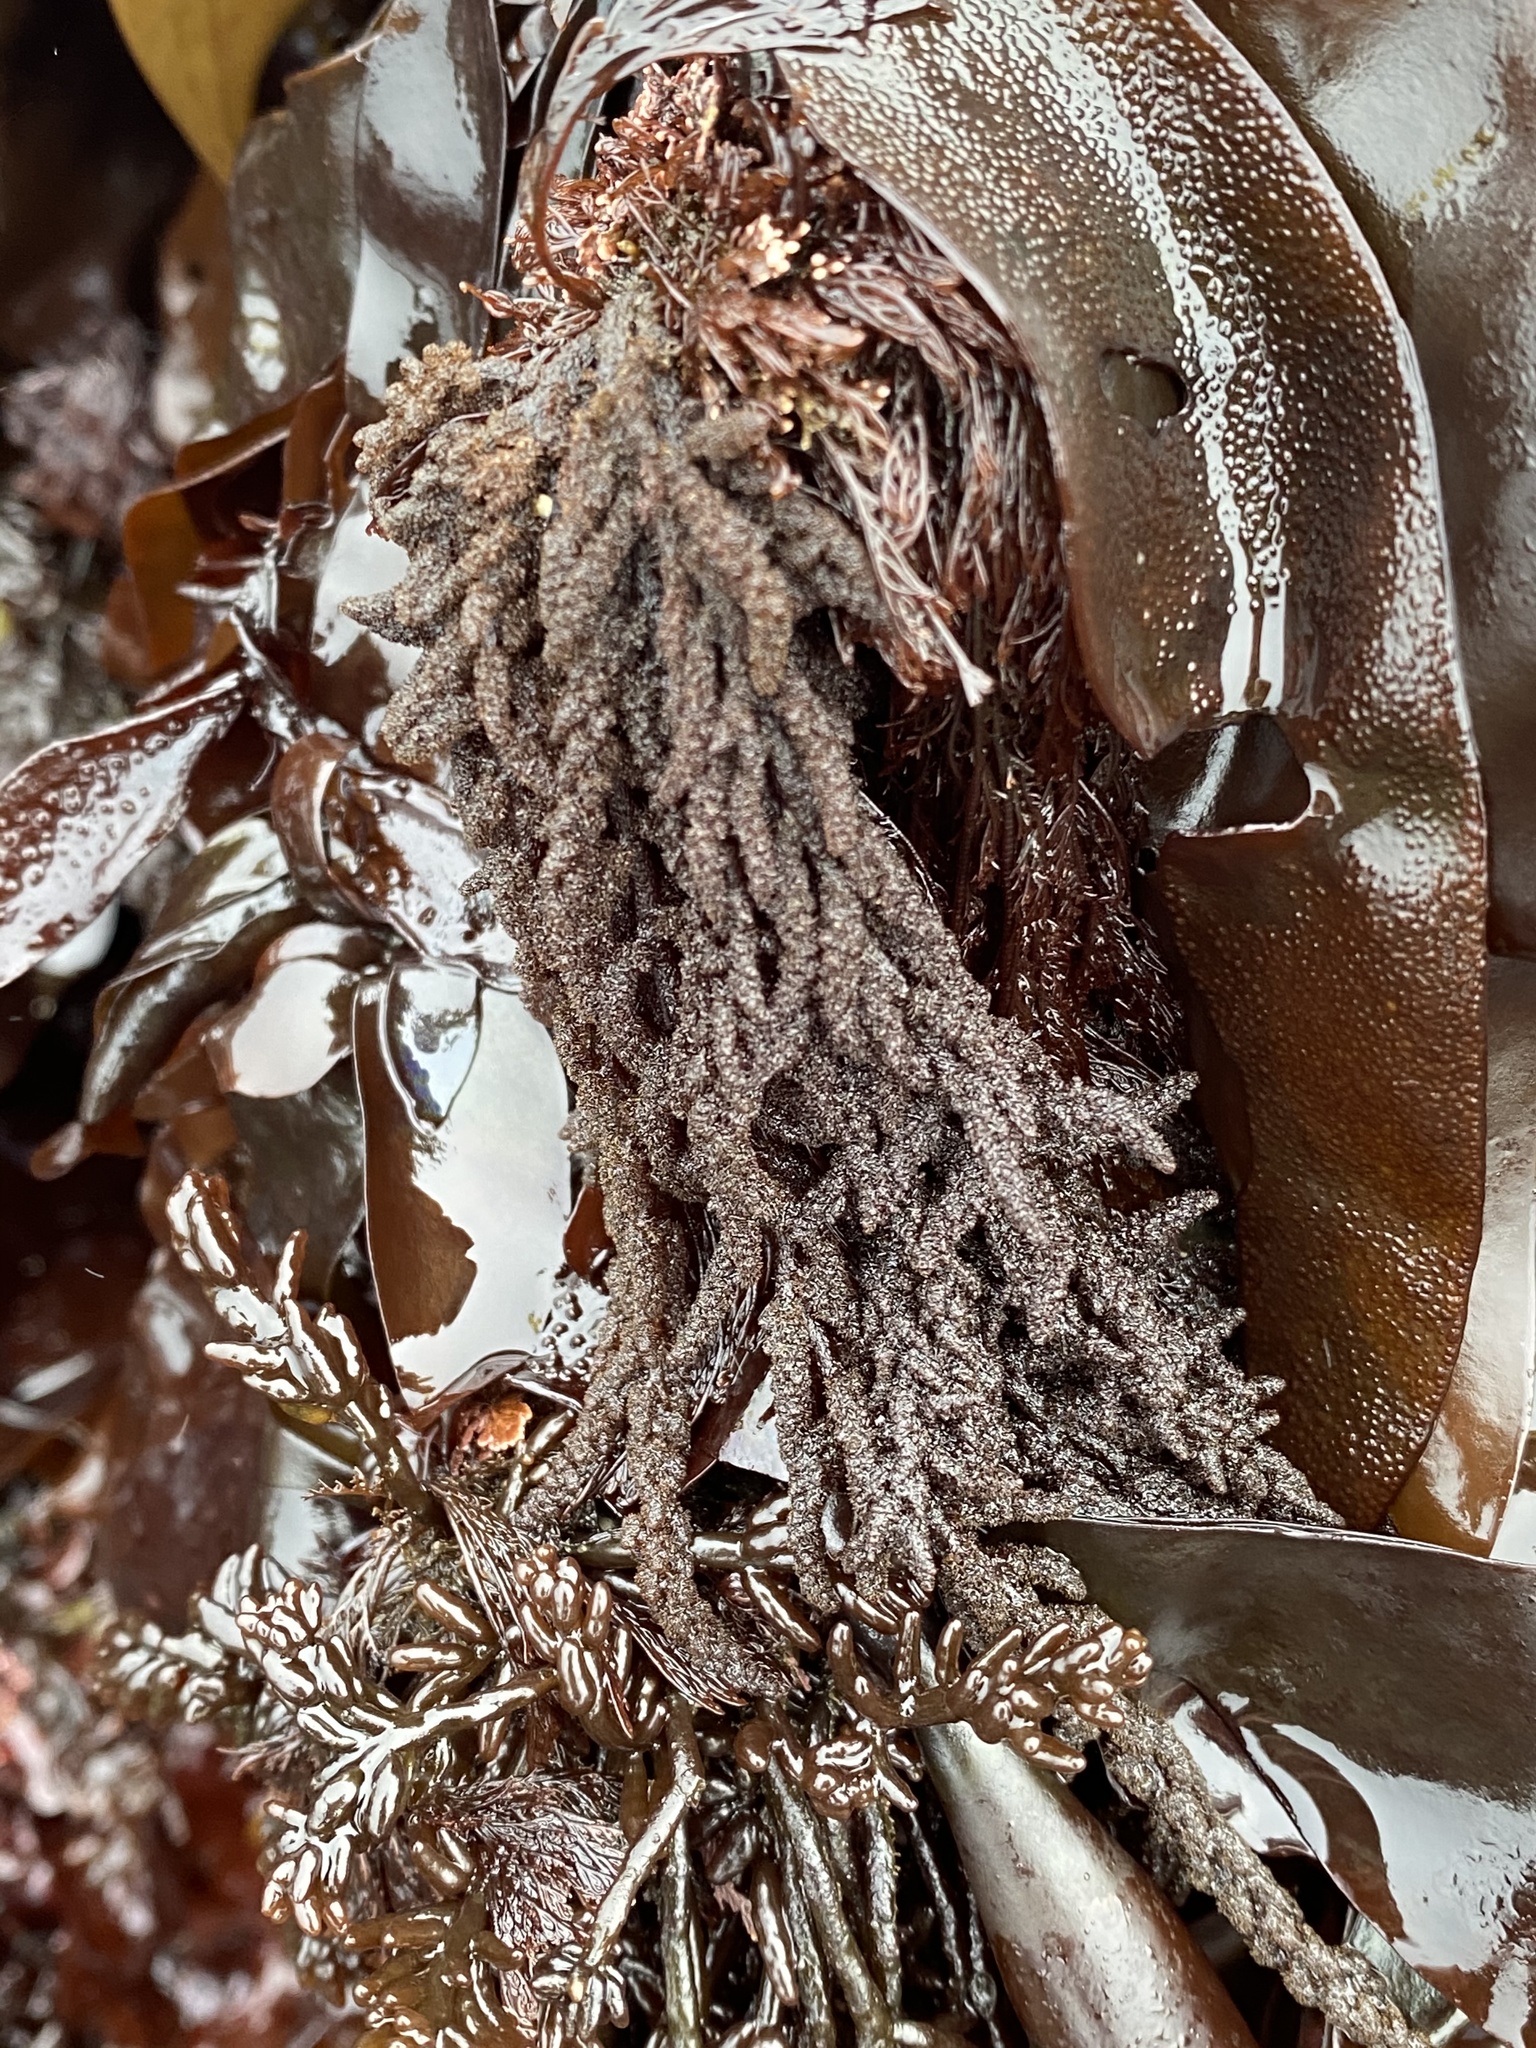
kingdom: Plantae
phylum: Rhodophyta
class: Florideophyceae
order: Ceramiales
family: Callithamniaceae
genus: Callithamnion
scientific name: Callithamnion pikeanum
